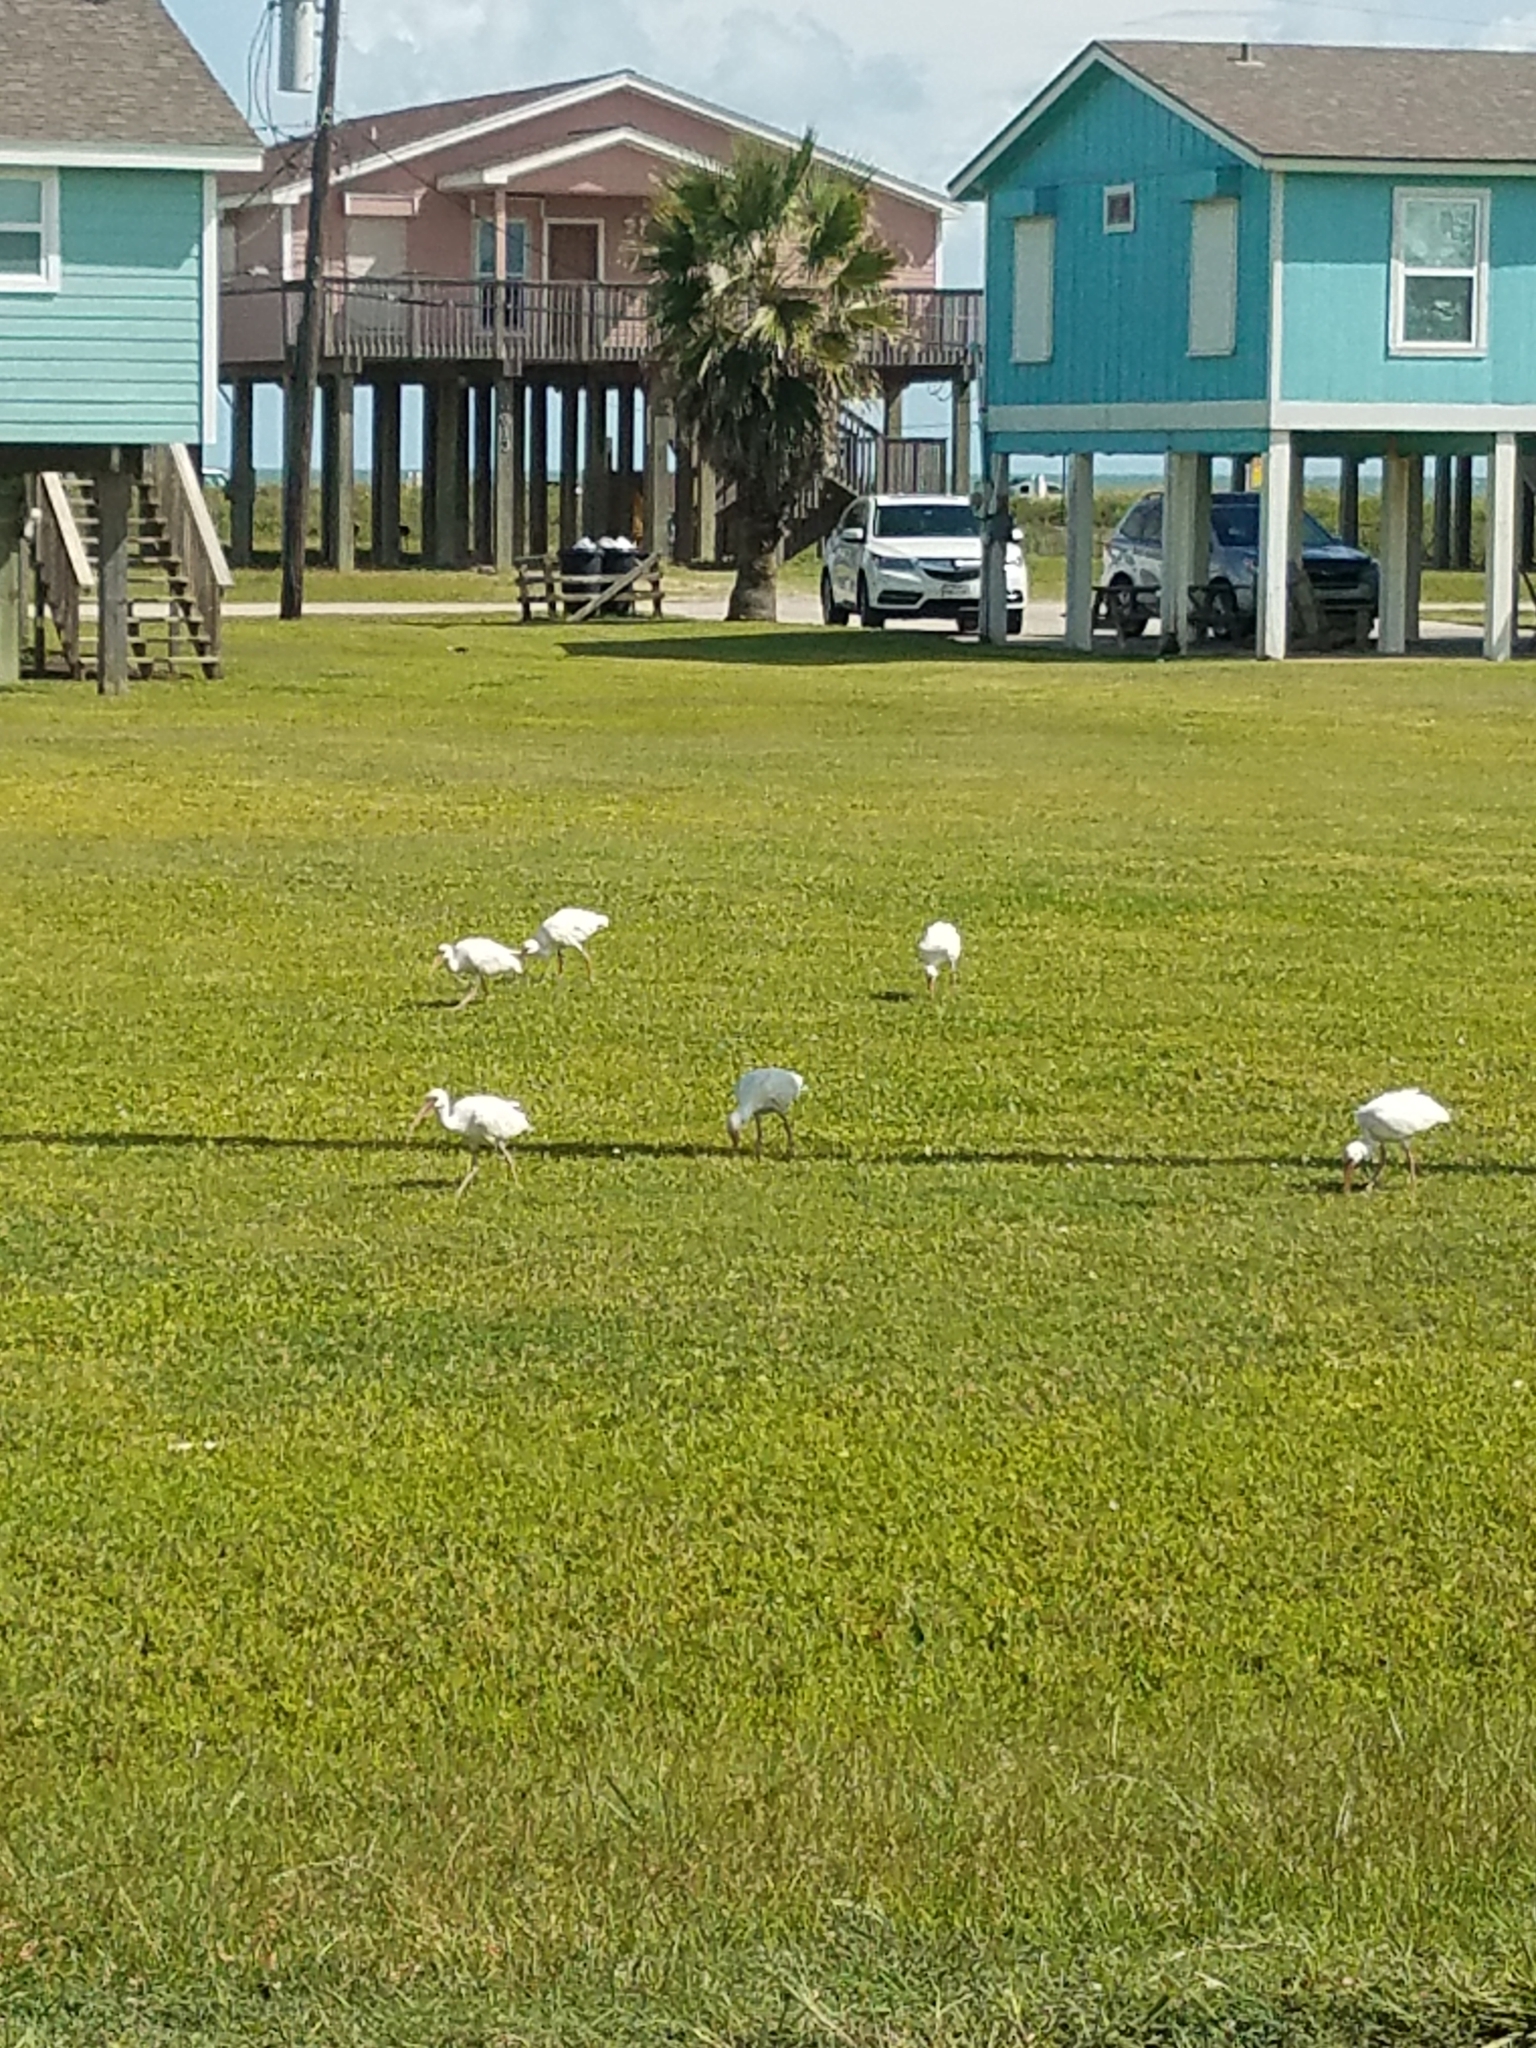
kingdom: Animalia
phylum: Chordata
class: Aves
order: Pelecaniformes
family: Threskiornithidae
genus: Eudocimus
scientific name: Eudocimus albus
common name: White ibis
